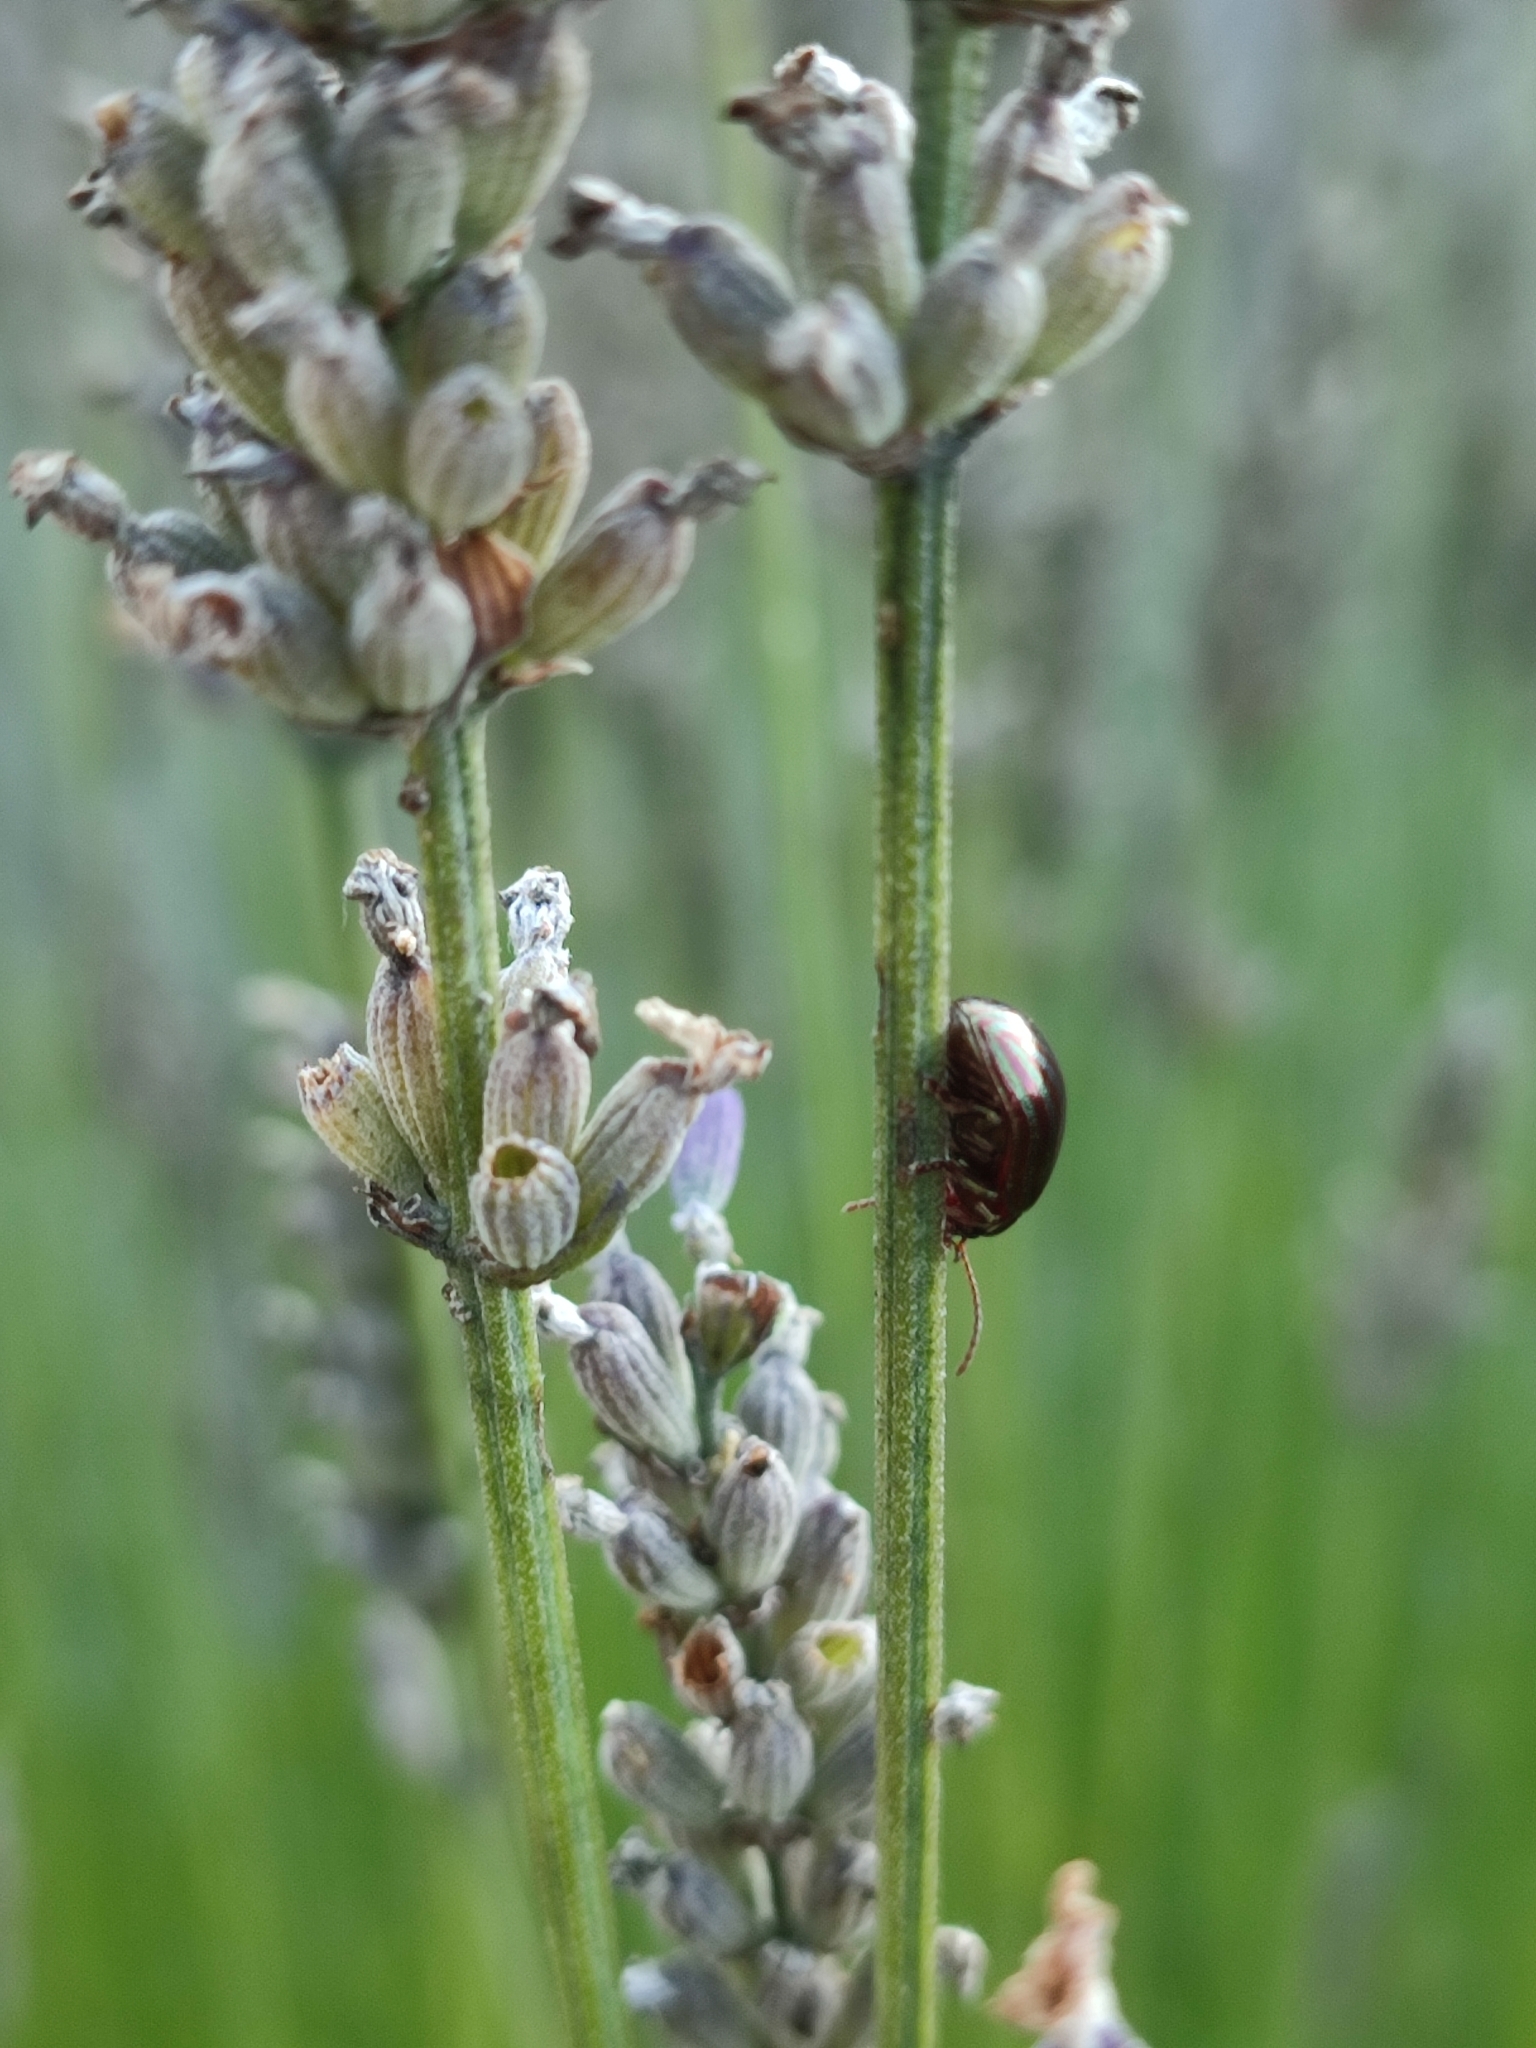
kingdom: Animalia
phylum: Arthropoda
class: Insecta
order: Coleoptera
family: Chrysomelidae
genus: Chrysolina
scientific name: Chrysolina americana
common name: Rosemary beetle
